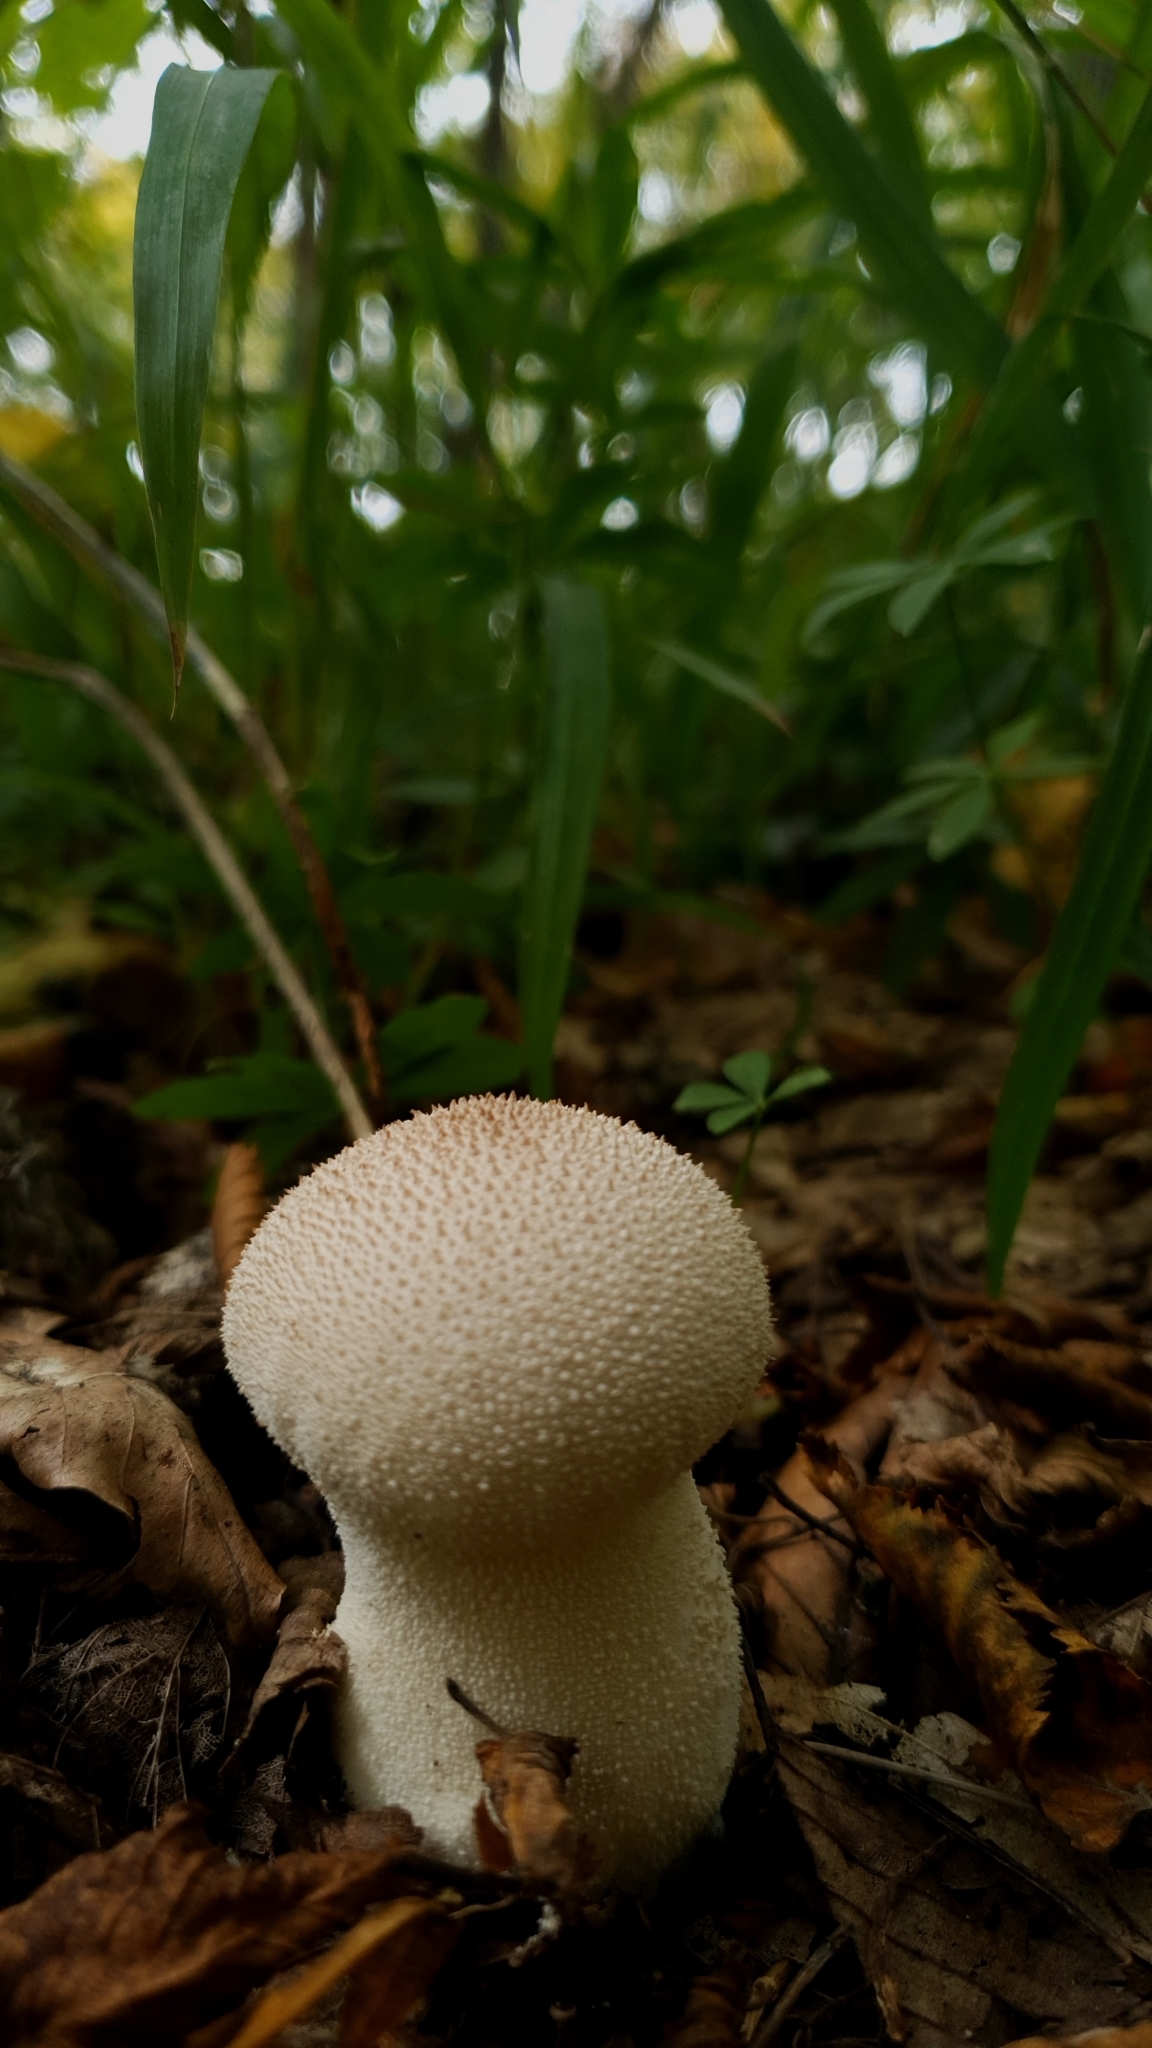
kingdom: Fungi
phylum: Basidiomycota
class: Agaricomycetes
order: Agaricales
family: Lycoperdaceae
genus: Lycoperdon
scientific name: Lycoperdon perlatum
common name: Common puffball
